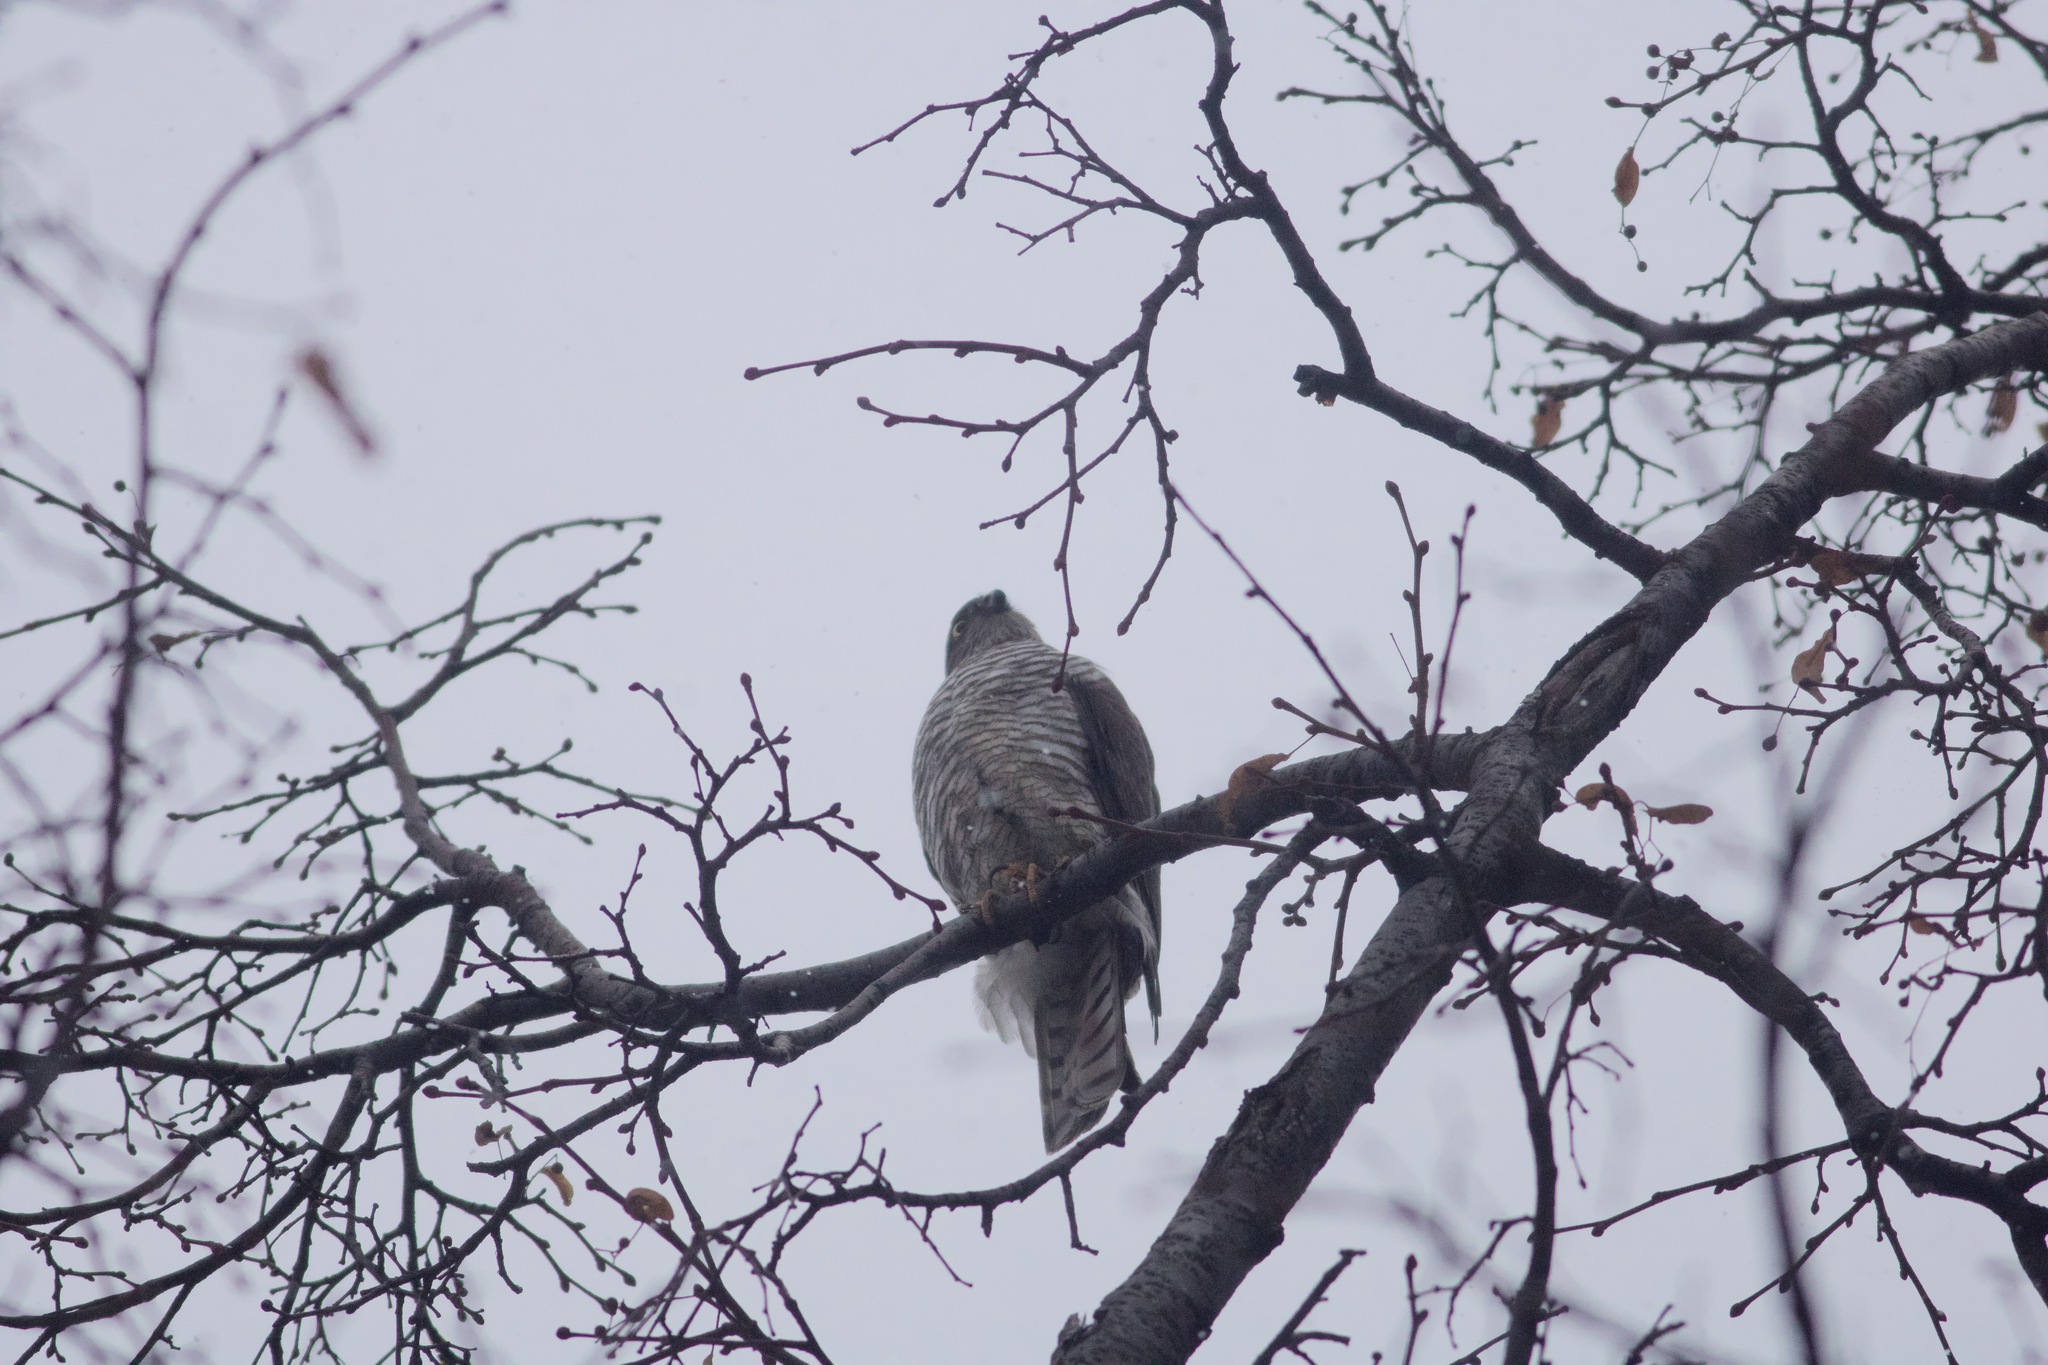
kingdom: Animalia
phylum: Chordata
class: Aves
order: Accipitriformes
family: Accipitridae
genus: Accipiter
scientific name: Accipiter nisus
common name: Eurasian sparrowhawk
